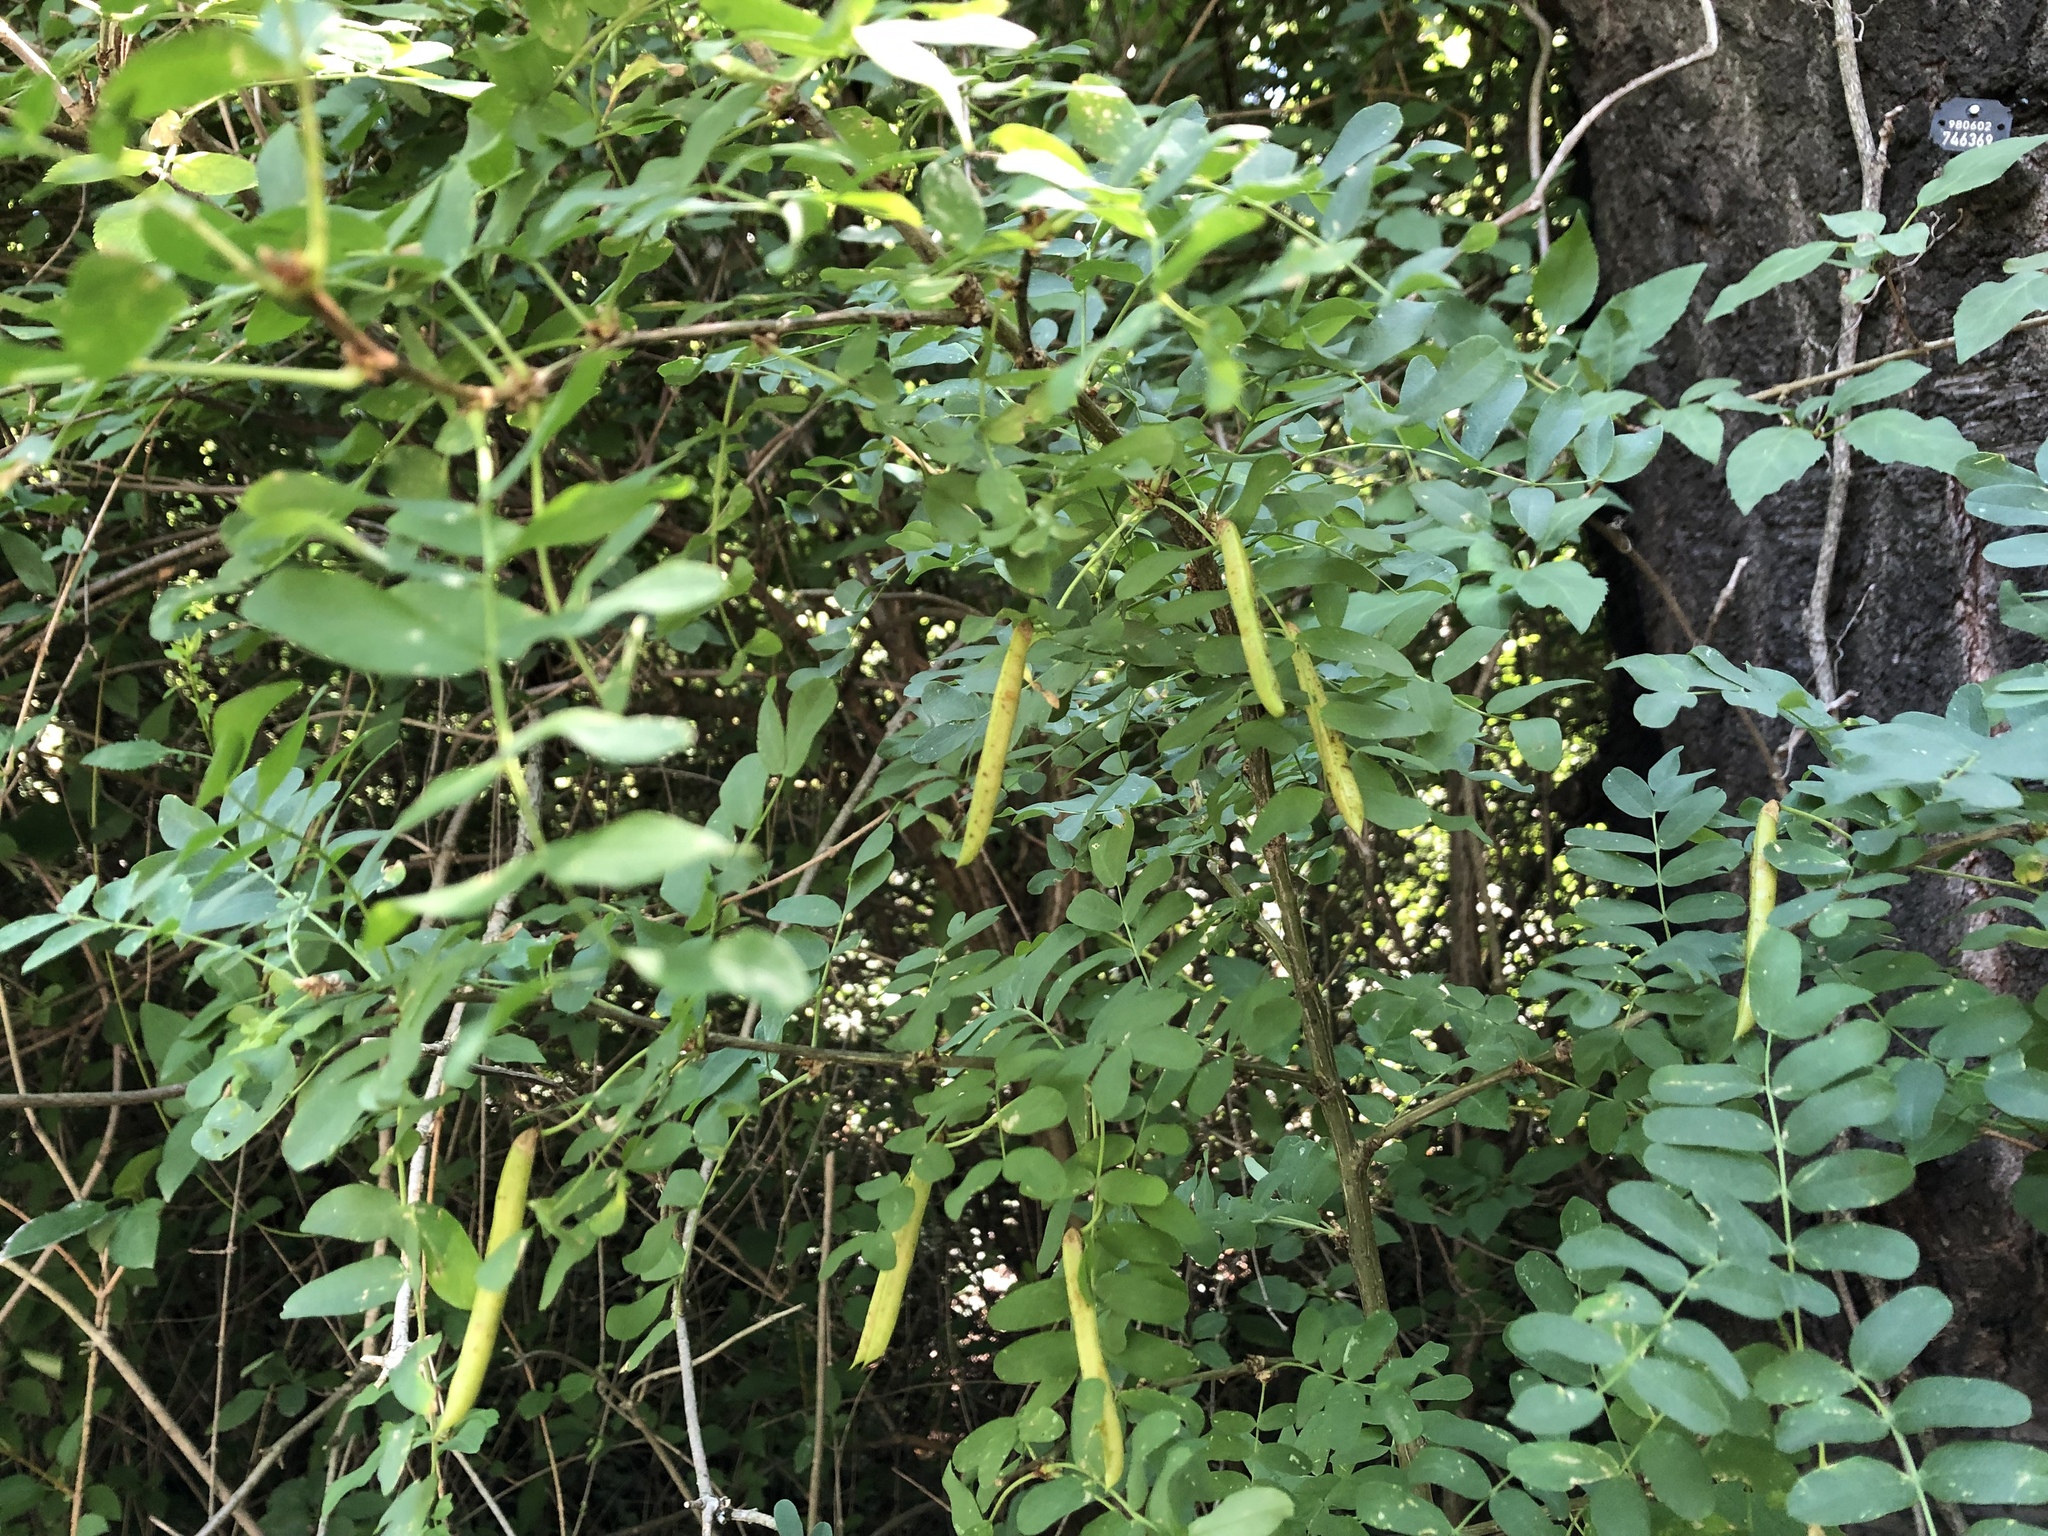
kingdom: Plantae
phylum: Tracheophyta
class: Magnoliopsida
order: Fabales
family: Fabaceae
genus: Caragana
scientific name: Caragana arborescens
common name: Siberian peashrub
